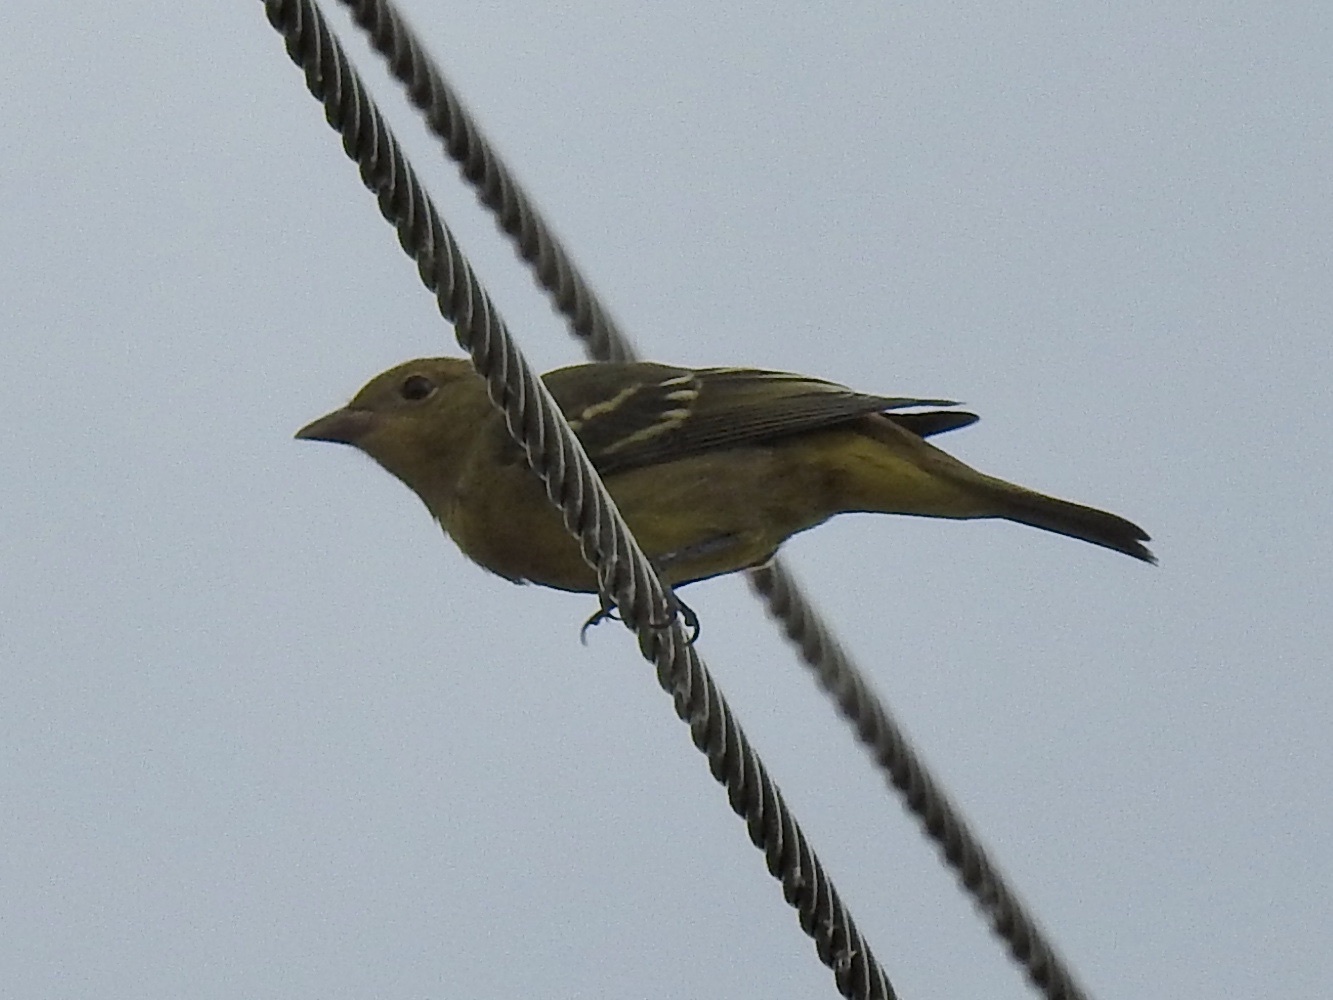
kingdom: Animalia
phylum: Chordata
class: Aves
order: Passeriformes
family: Cardinalidae
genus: Piranga
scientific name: Piranga ludoviciana
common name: Western tanager
